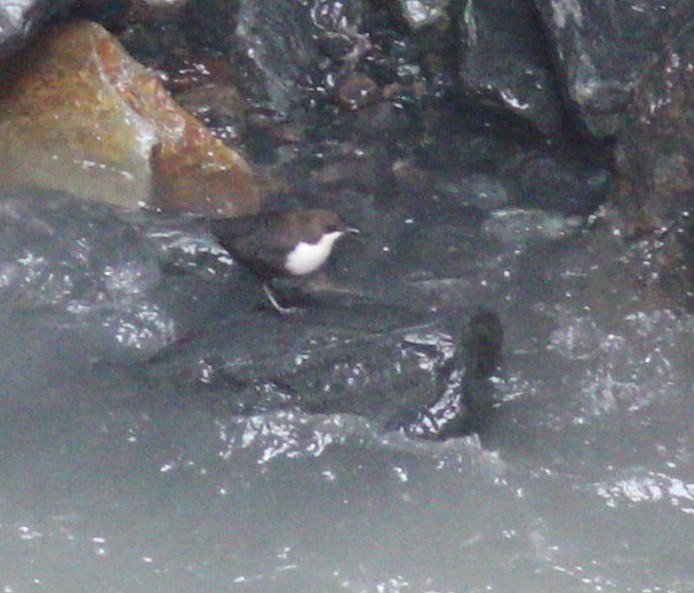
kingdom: Animalia
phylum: Chordata
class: Aves
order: Passeriformes
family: Cinclidae
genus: Cinclus
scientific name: Cinclus cinclus
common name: White-throated dipper
